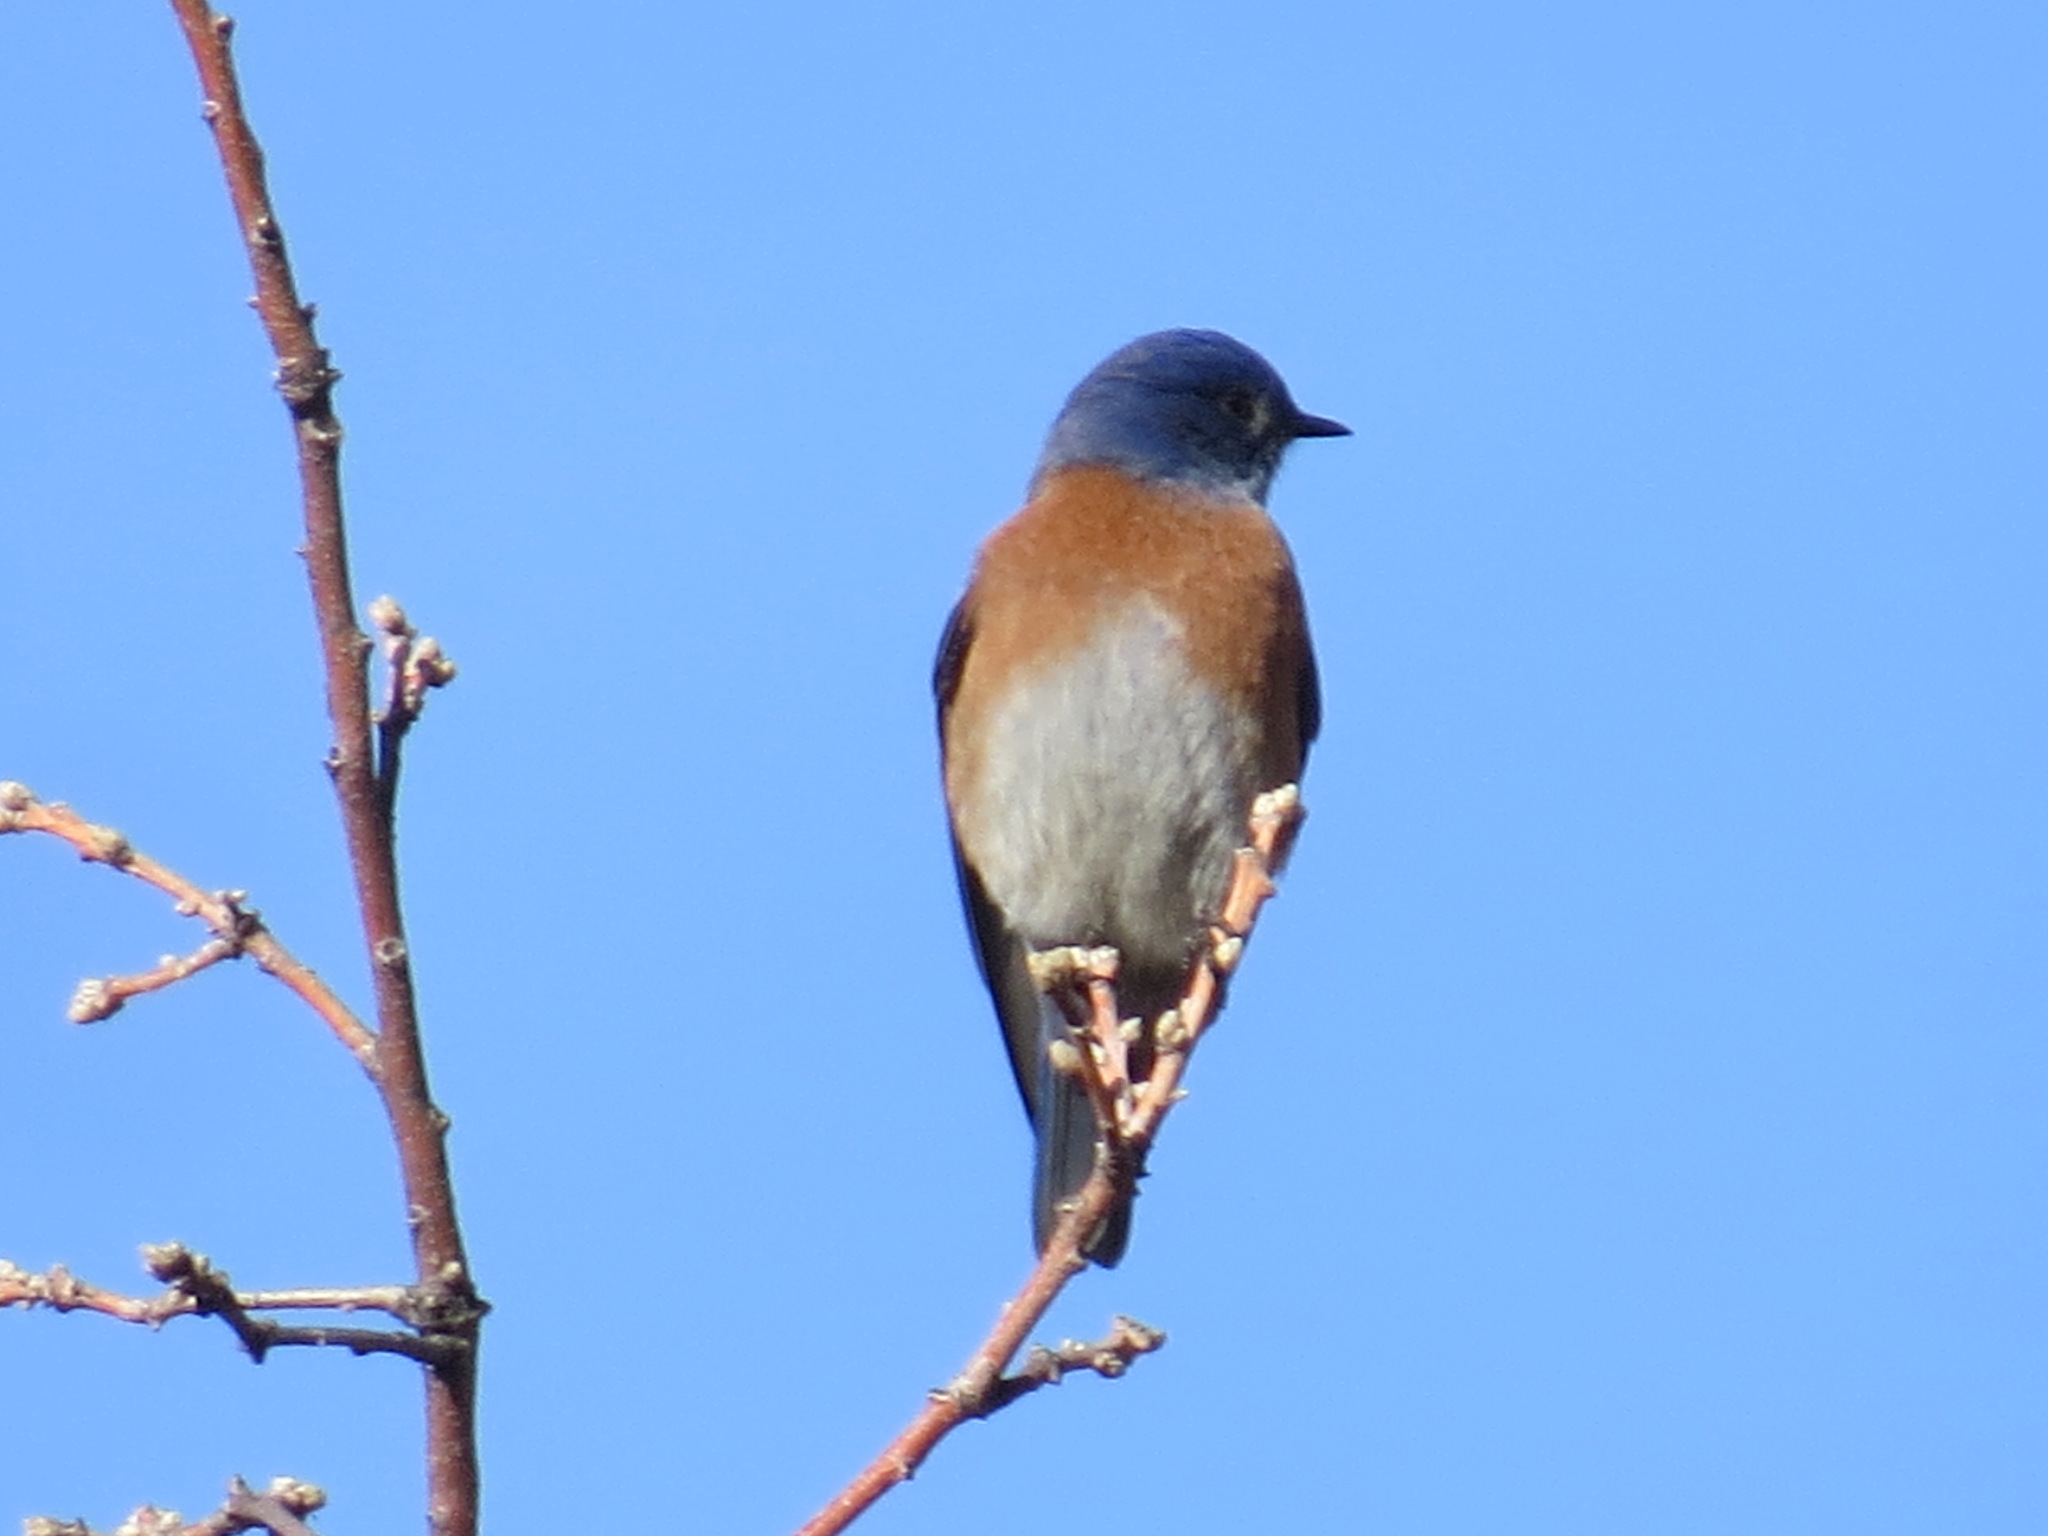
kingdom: Animalia
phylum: Chordata
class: Aves
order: Passeriformes
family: Turdidae
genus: Sialia
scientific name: Sialia mexicana
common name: Western bluebird
